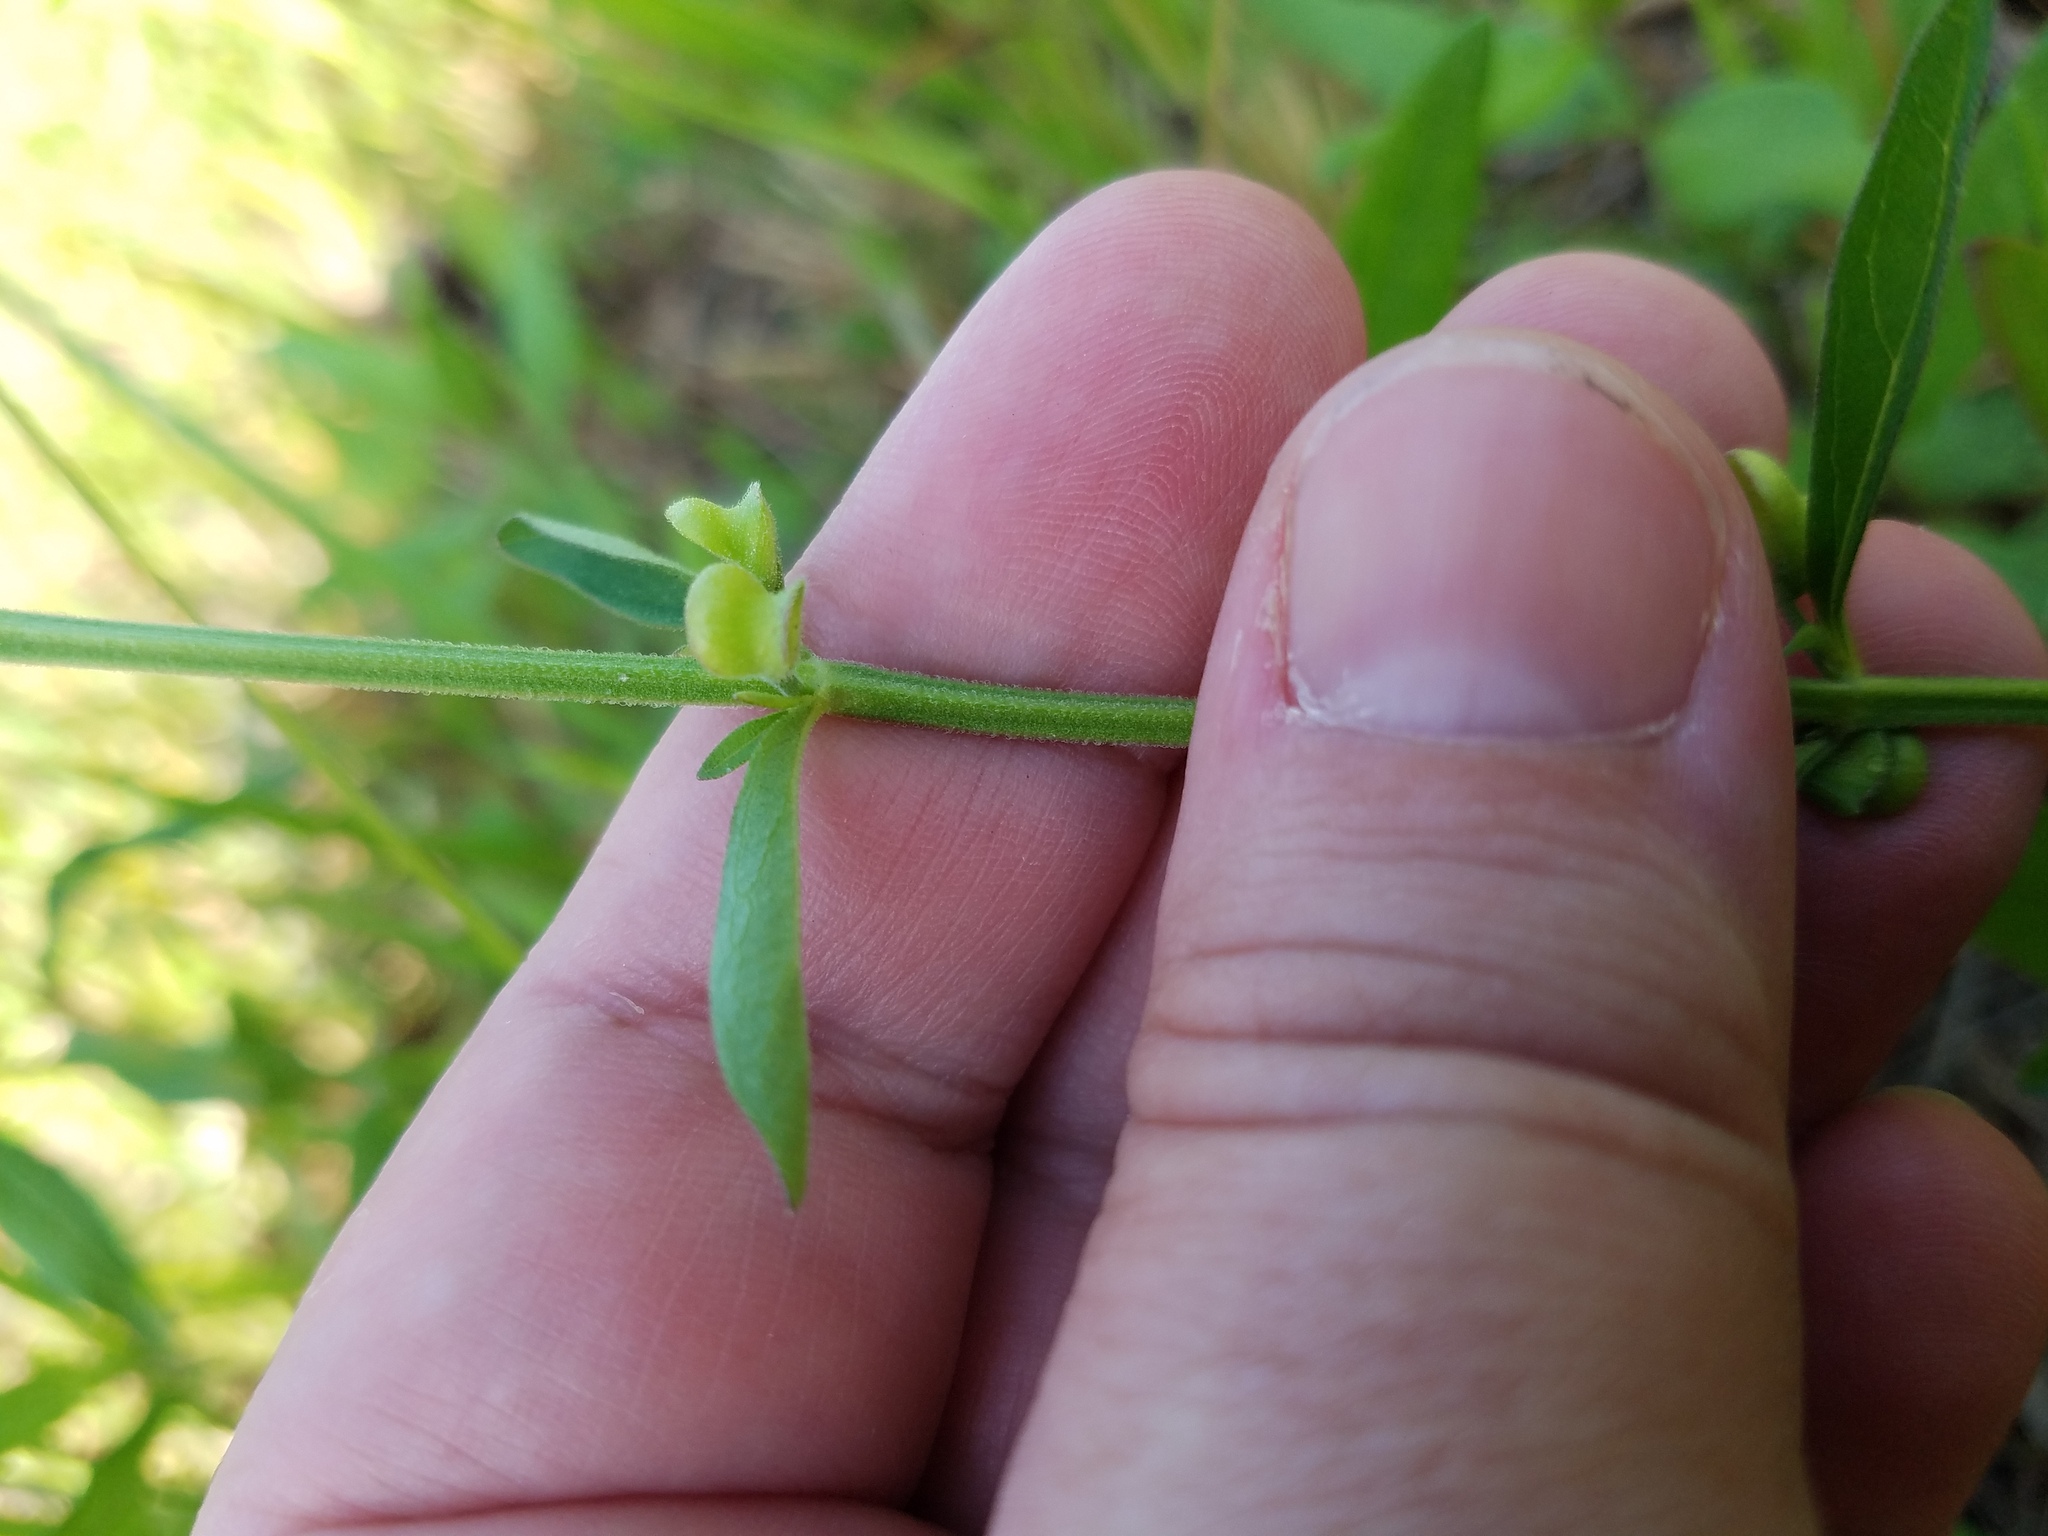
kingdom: Plantae
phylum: Tracheophyta
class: Magnoliopsida
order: Lamiales
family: Lamiaceae
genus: Scutellaria
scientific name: Scutellaria integrifolia
